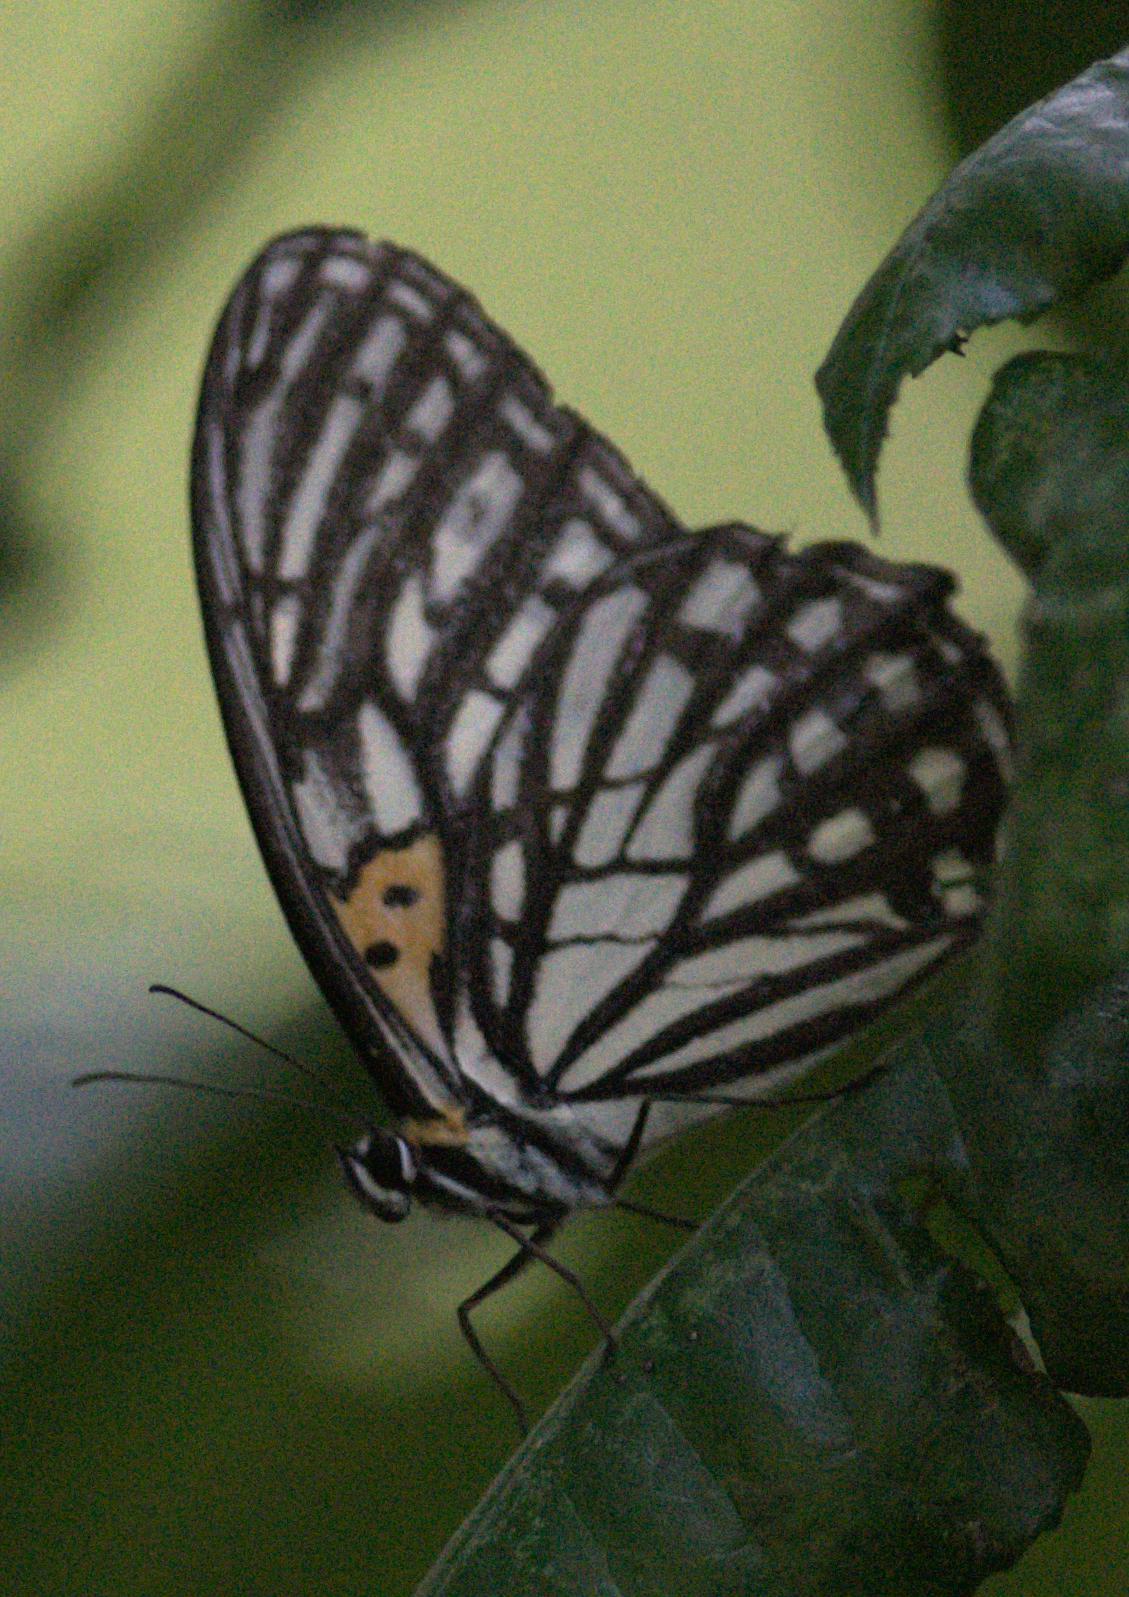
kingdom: Animalia
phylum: Arthropoda
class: Insecta
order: Lepidoptera
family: Nymphalidae
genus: Orinoma
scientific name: Orinoma damaris
